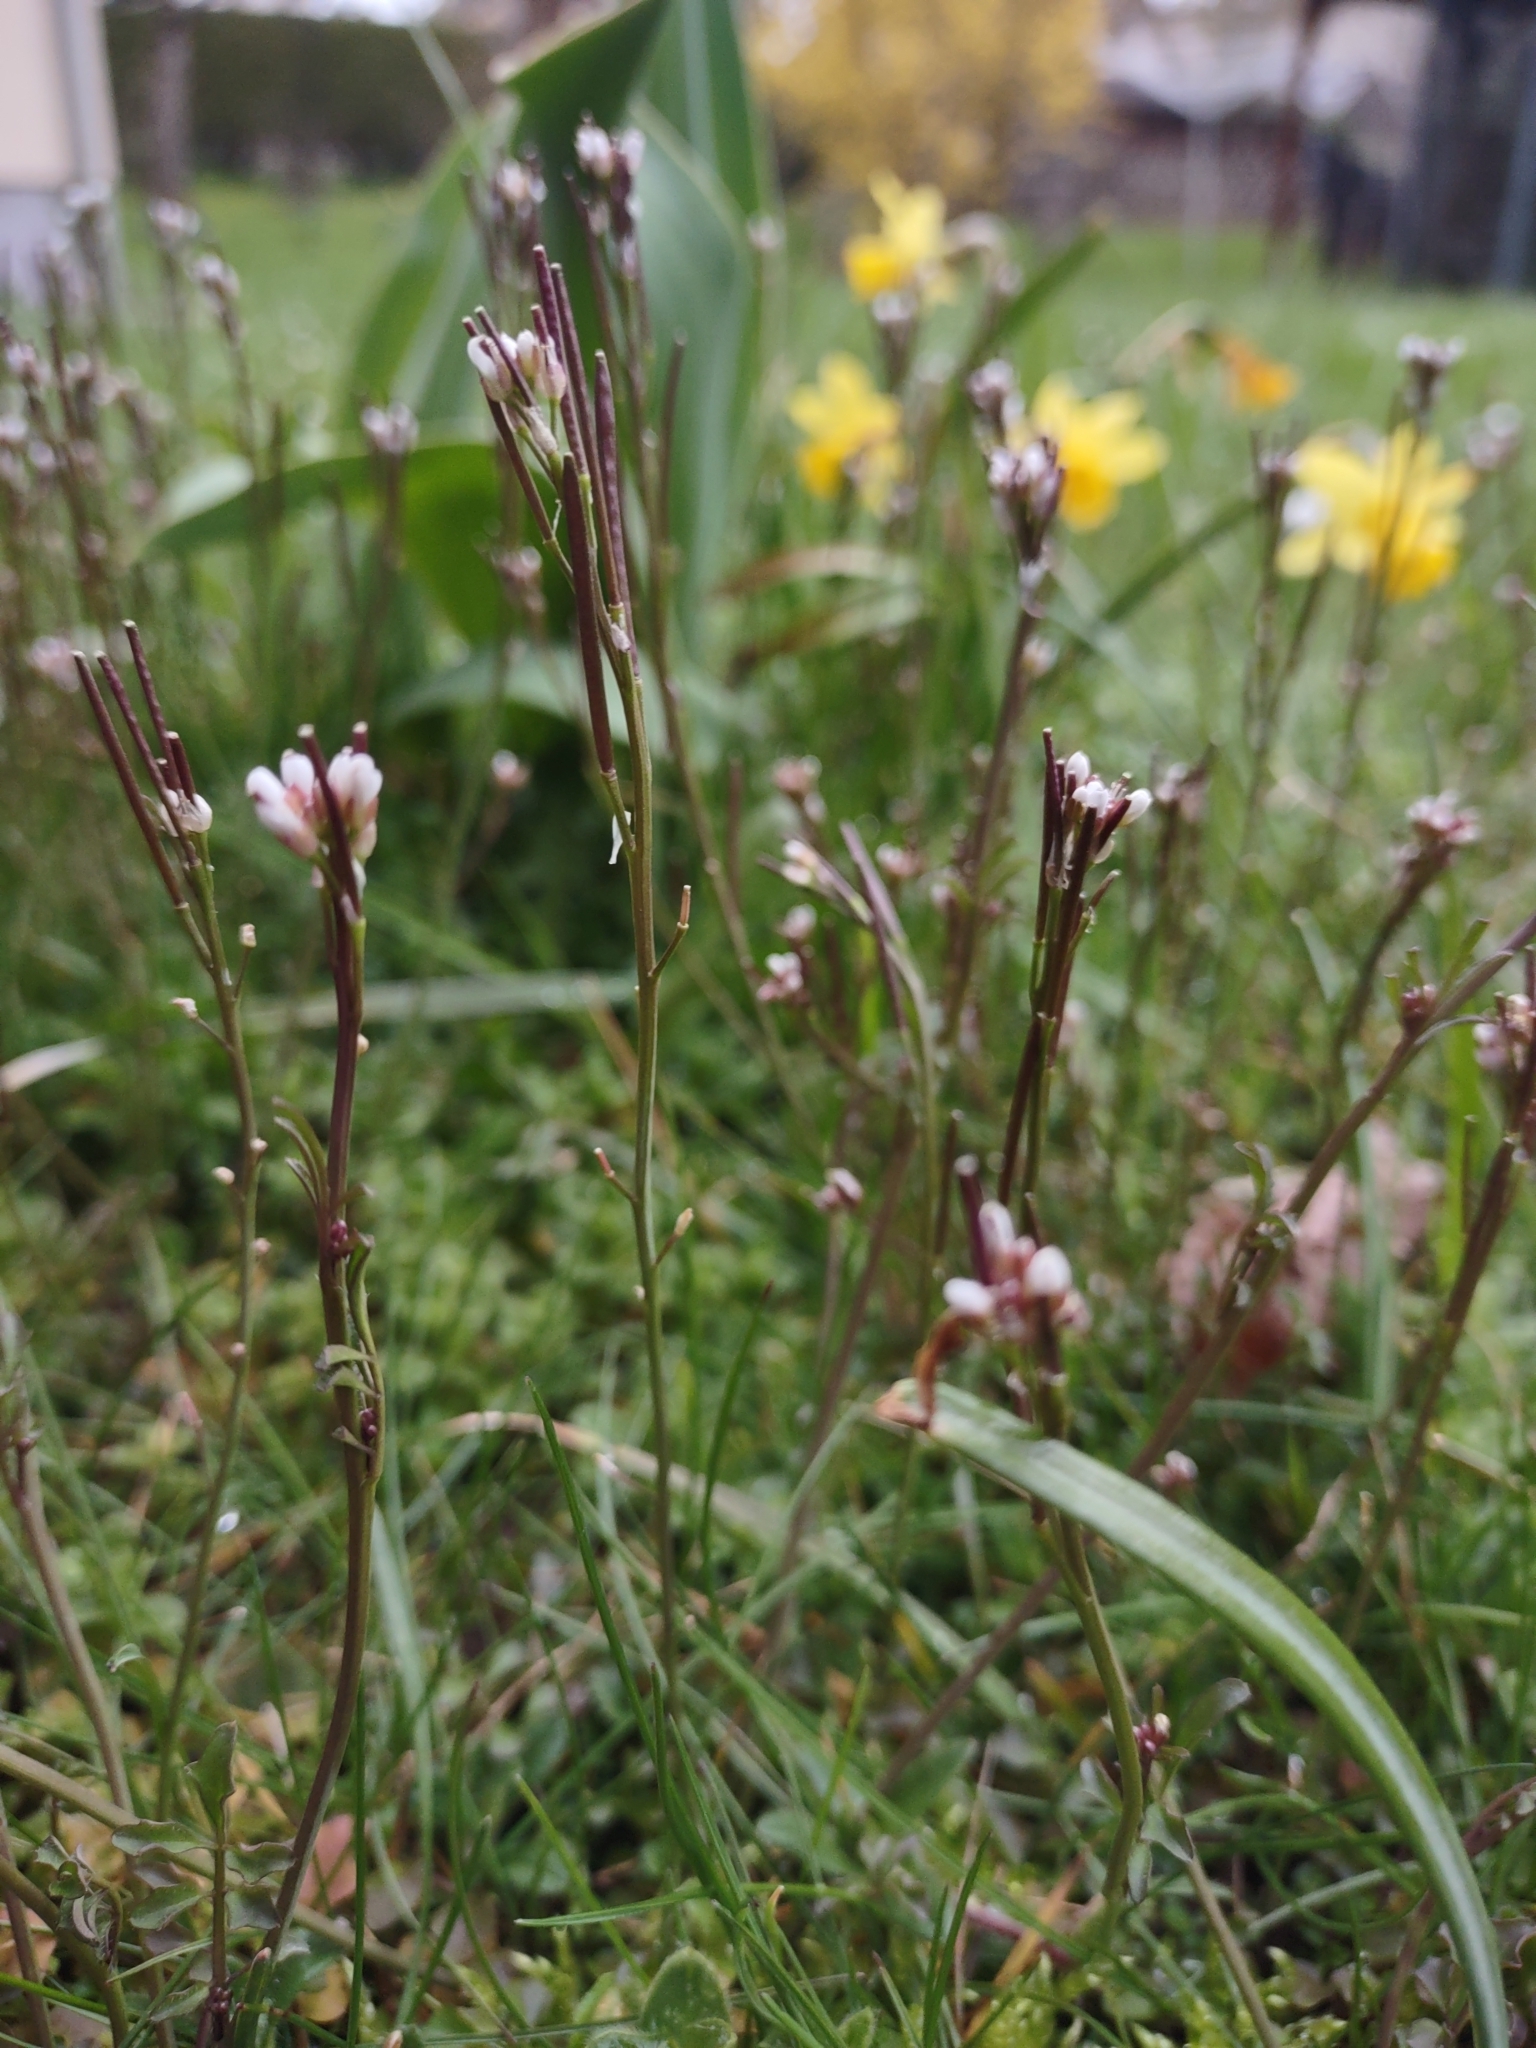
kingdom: Plantae
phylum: Tracheophyta
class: Magnoliopsida
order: Brassicales
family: Brassicaceae
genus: Cardamine
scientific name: Cardamine hirsuta
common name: Hairy bittercress
